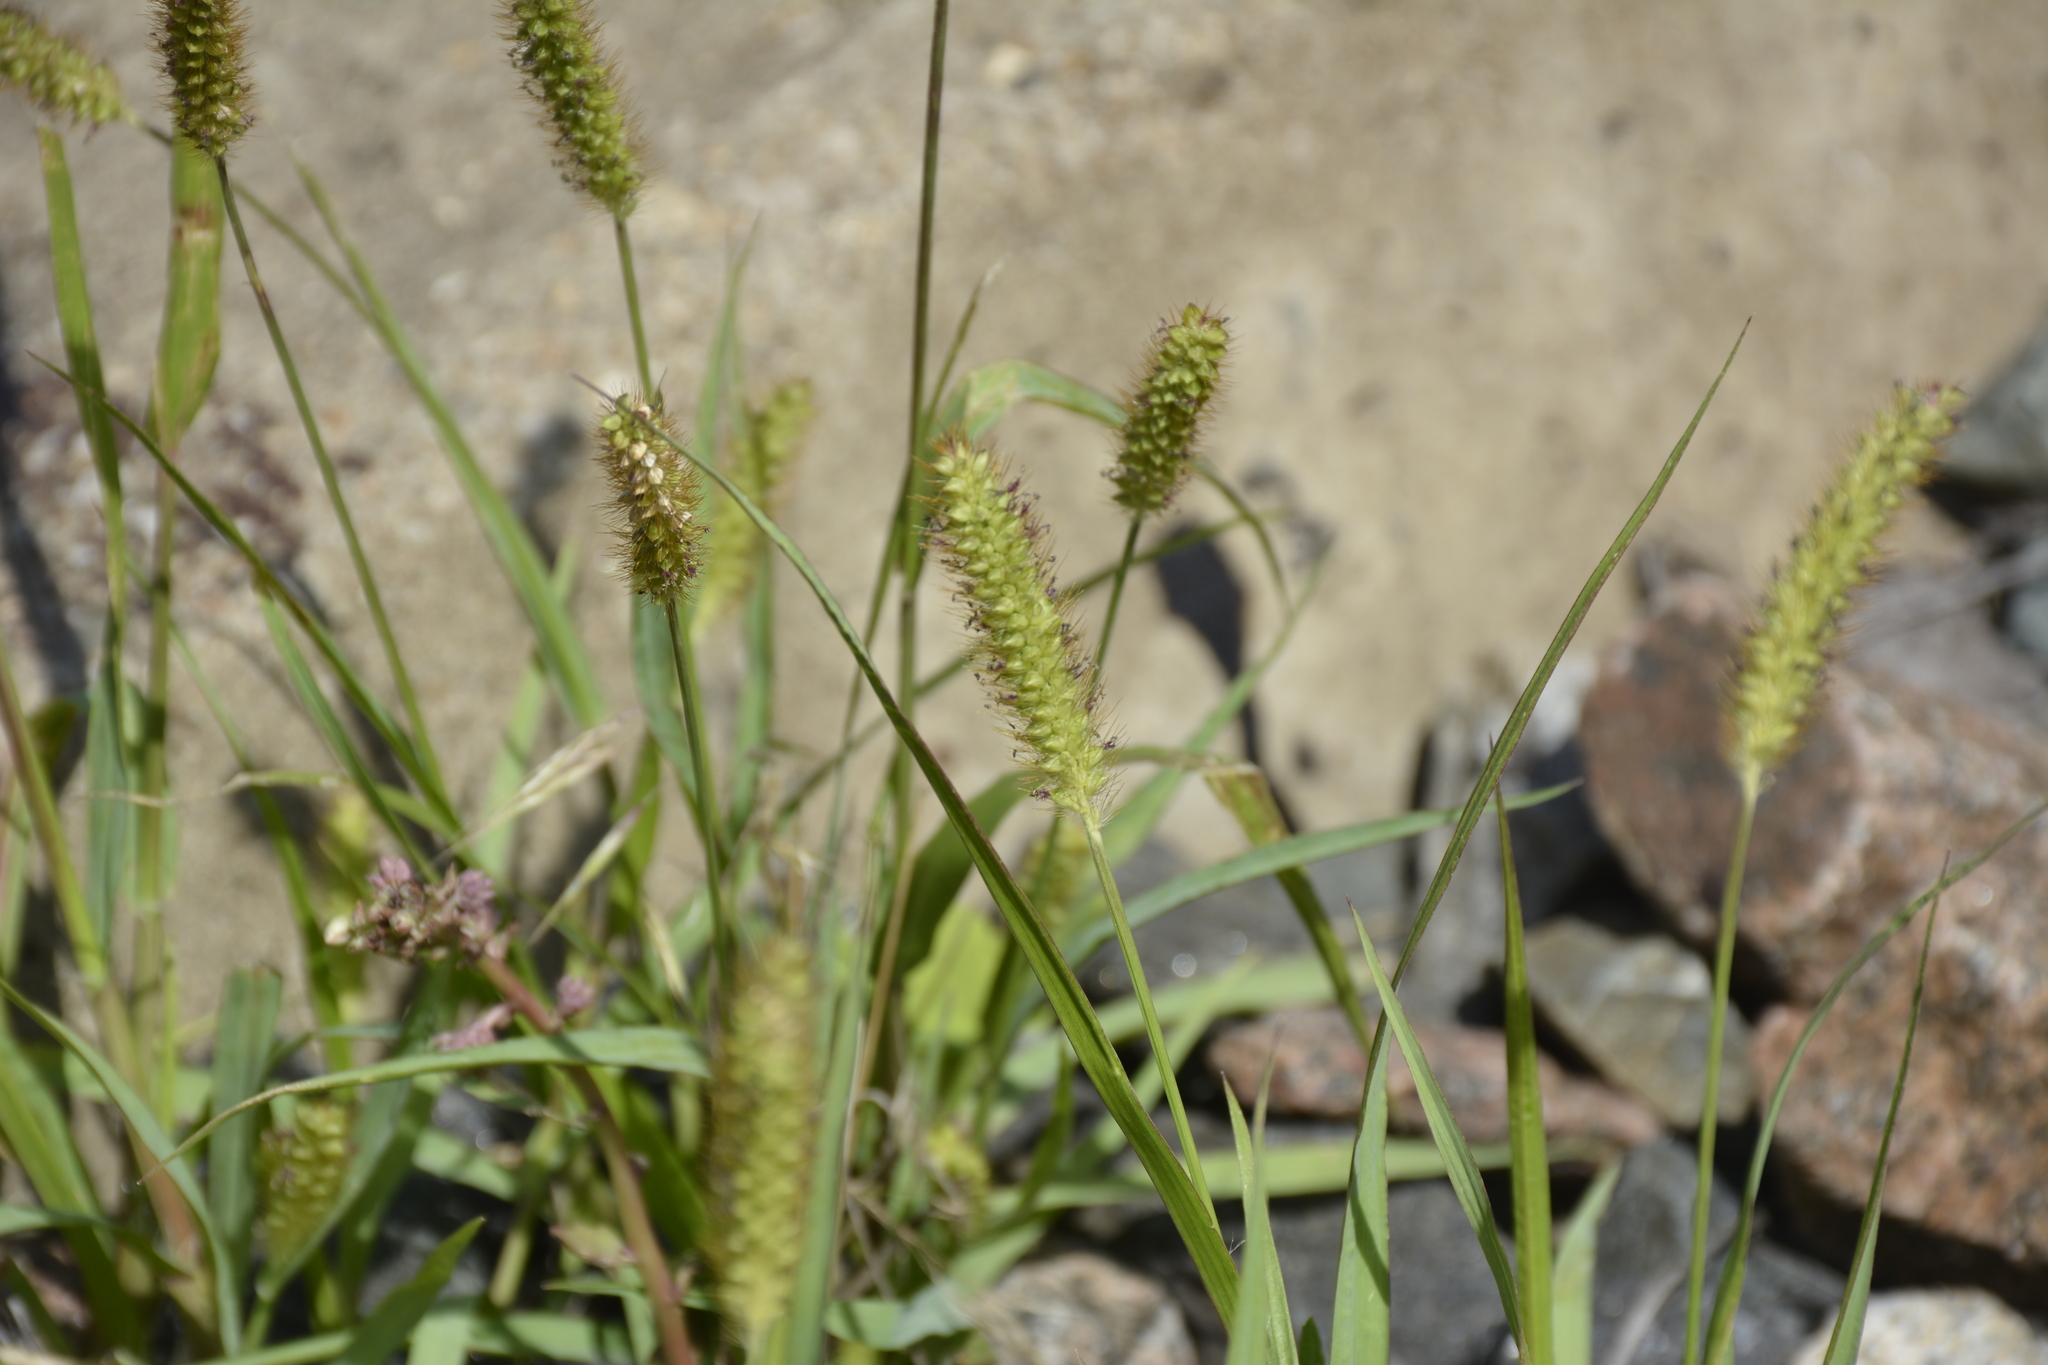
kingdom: Plantae
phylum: Tracheophyta
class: Liliopsida
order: Poales
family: Poaceae
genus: Setaria
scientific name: Setaria pumila
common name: Yellow bristle-grass
